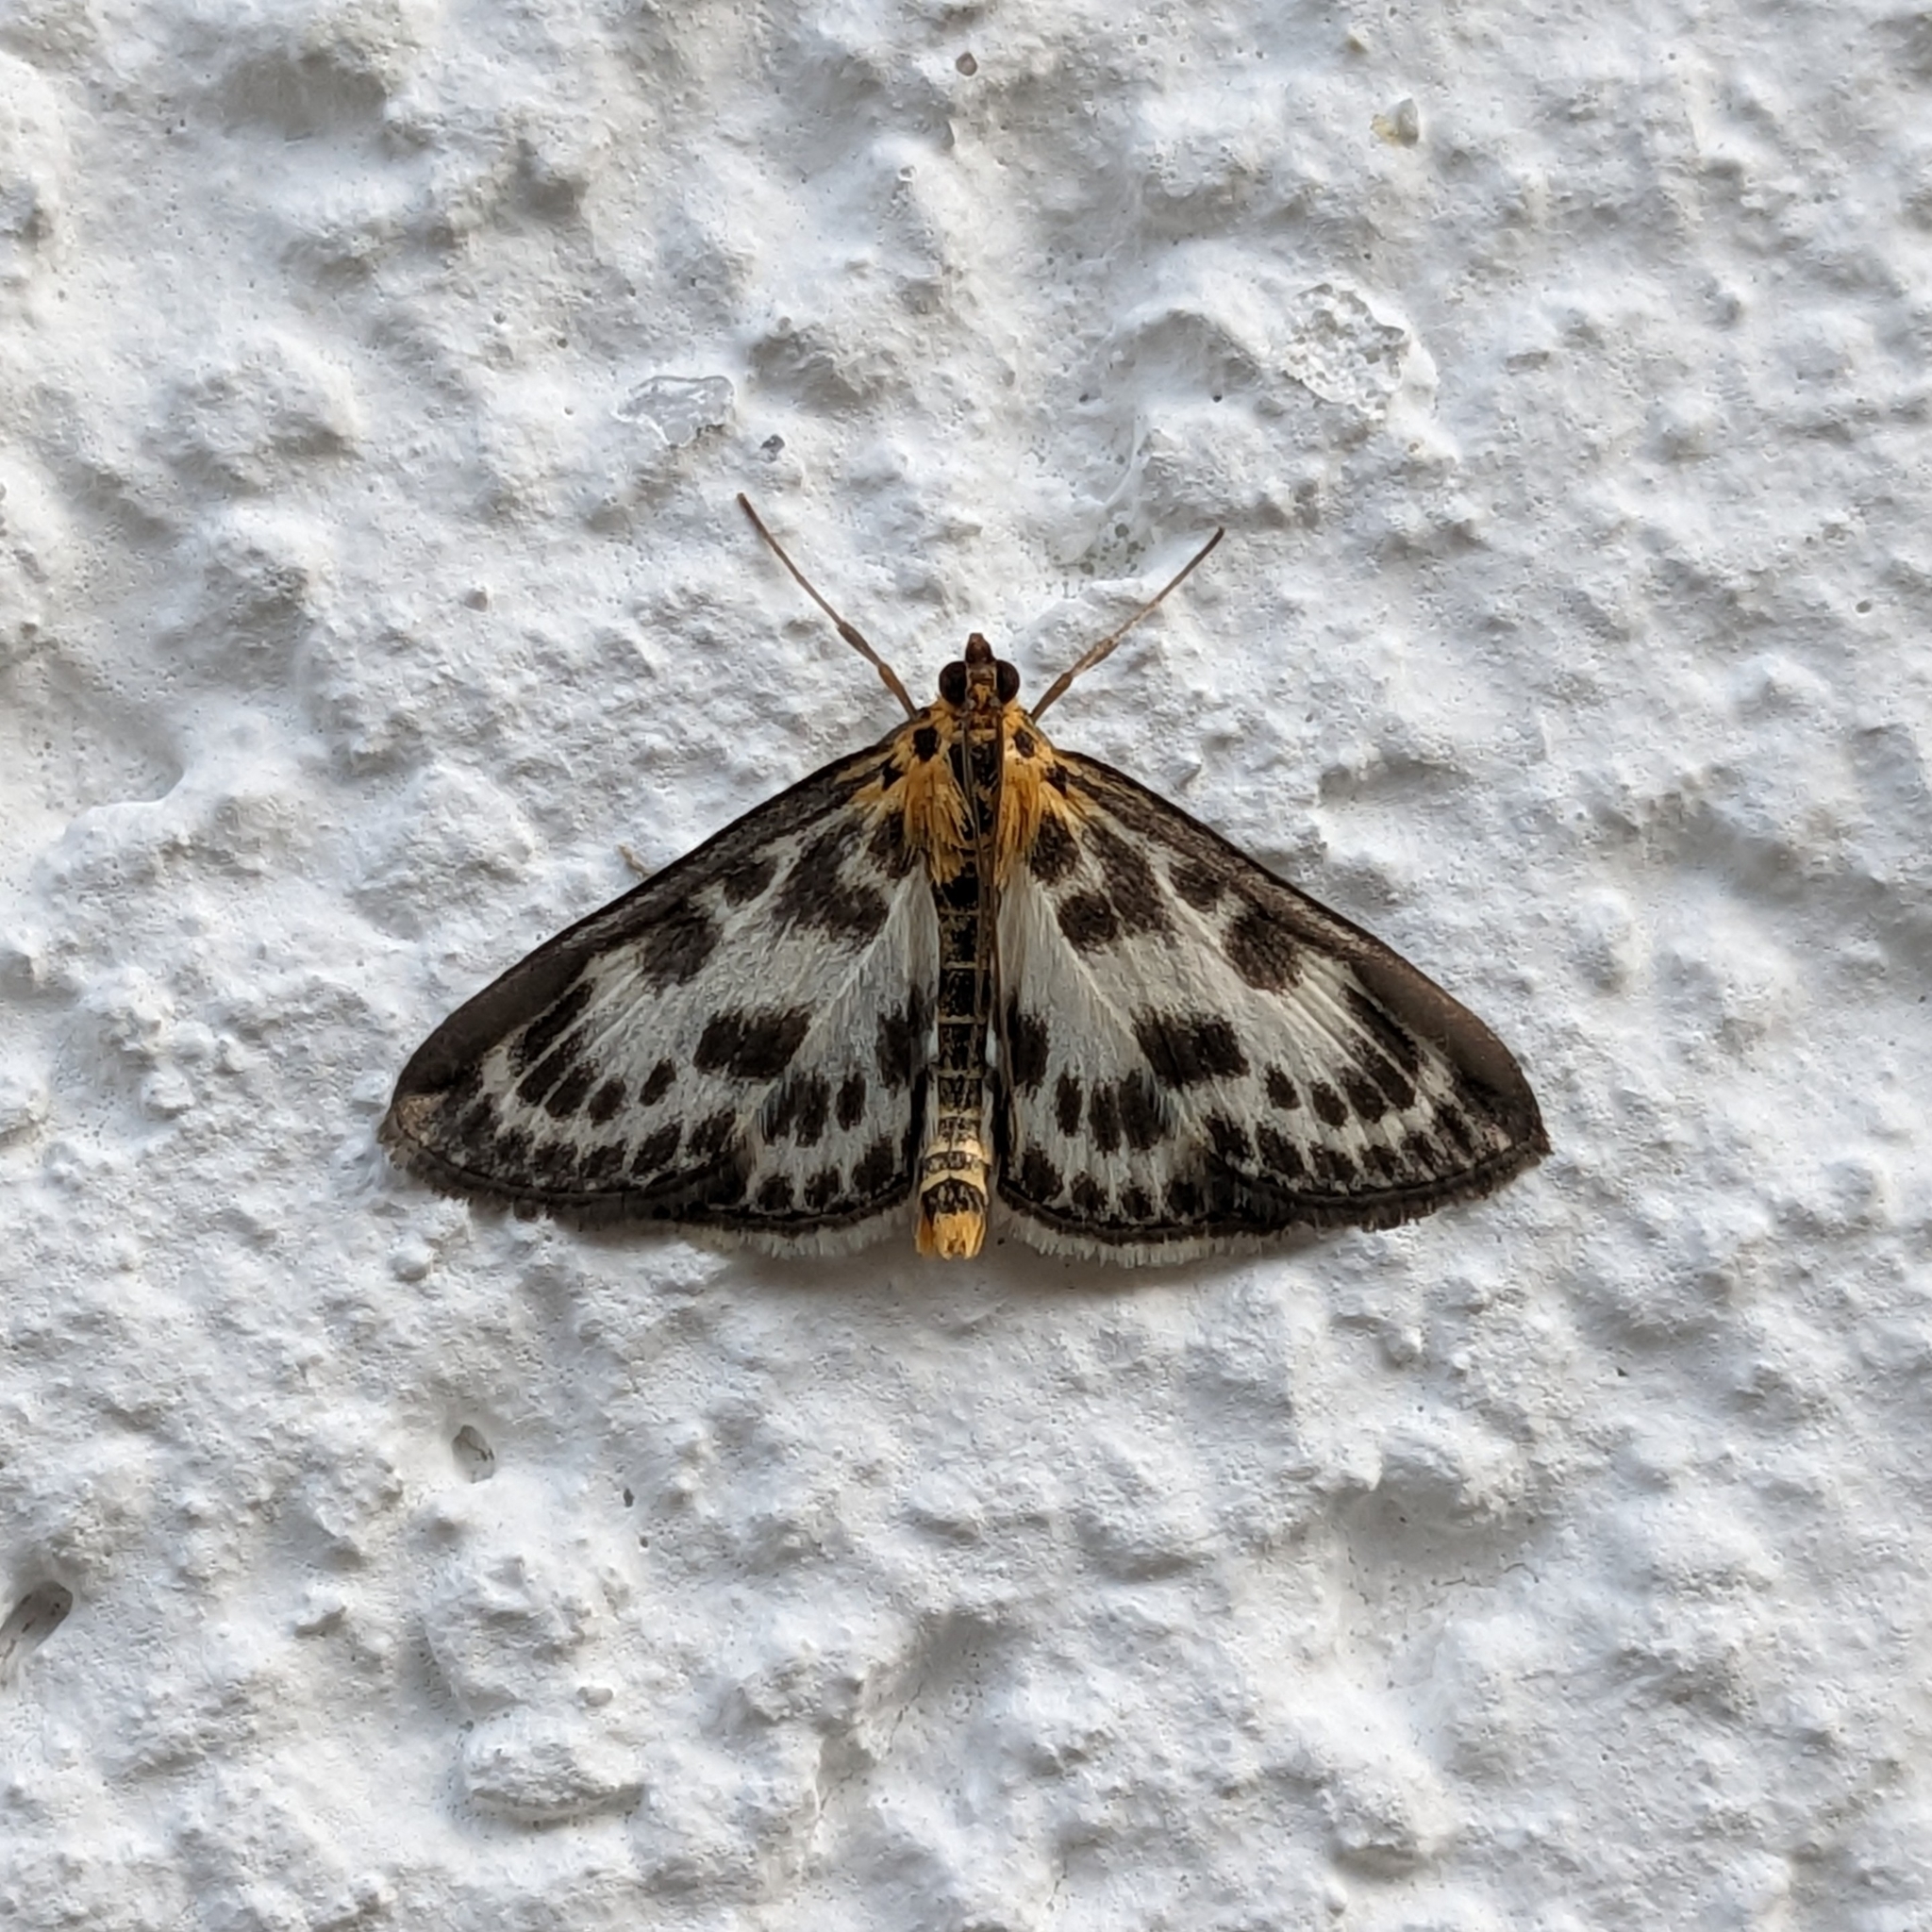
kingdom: Animalia
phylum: Arthropoda
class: Insecta
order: Lepidoptera
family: Crambidae
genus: Anania
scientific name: Anania hortulata
